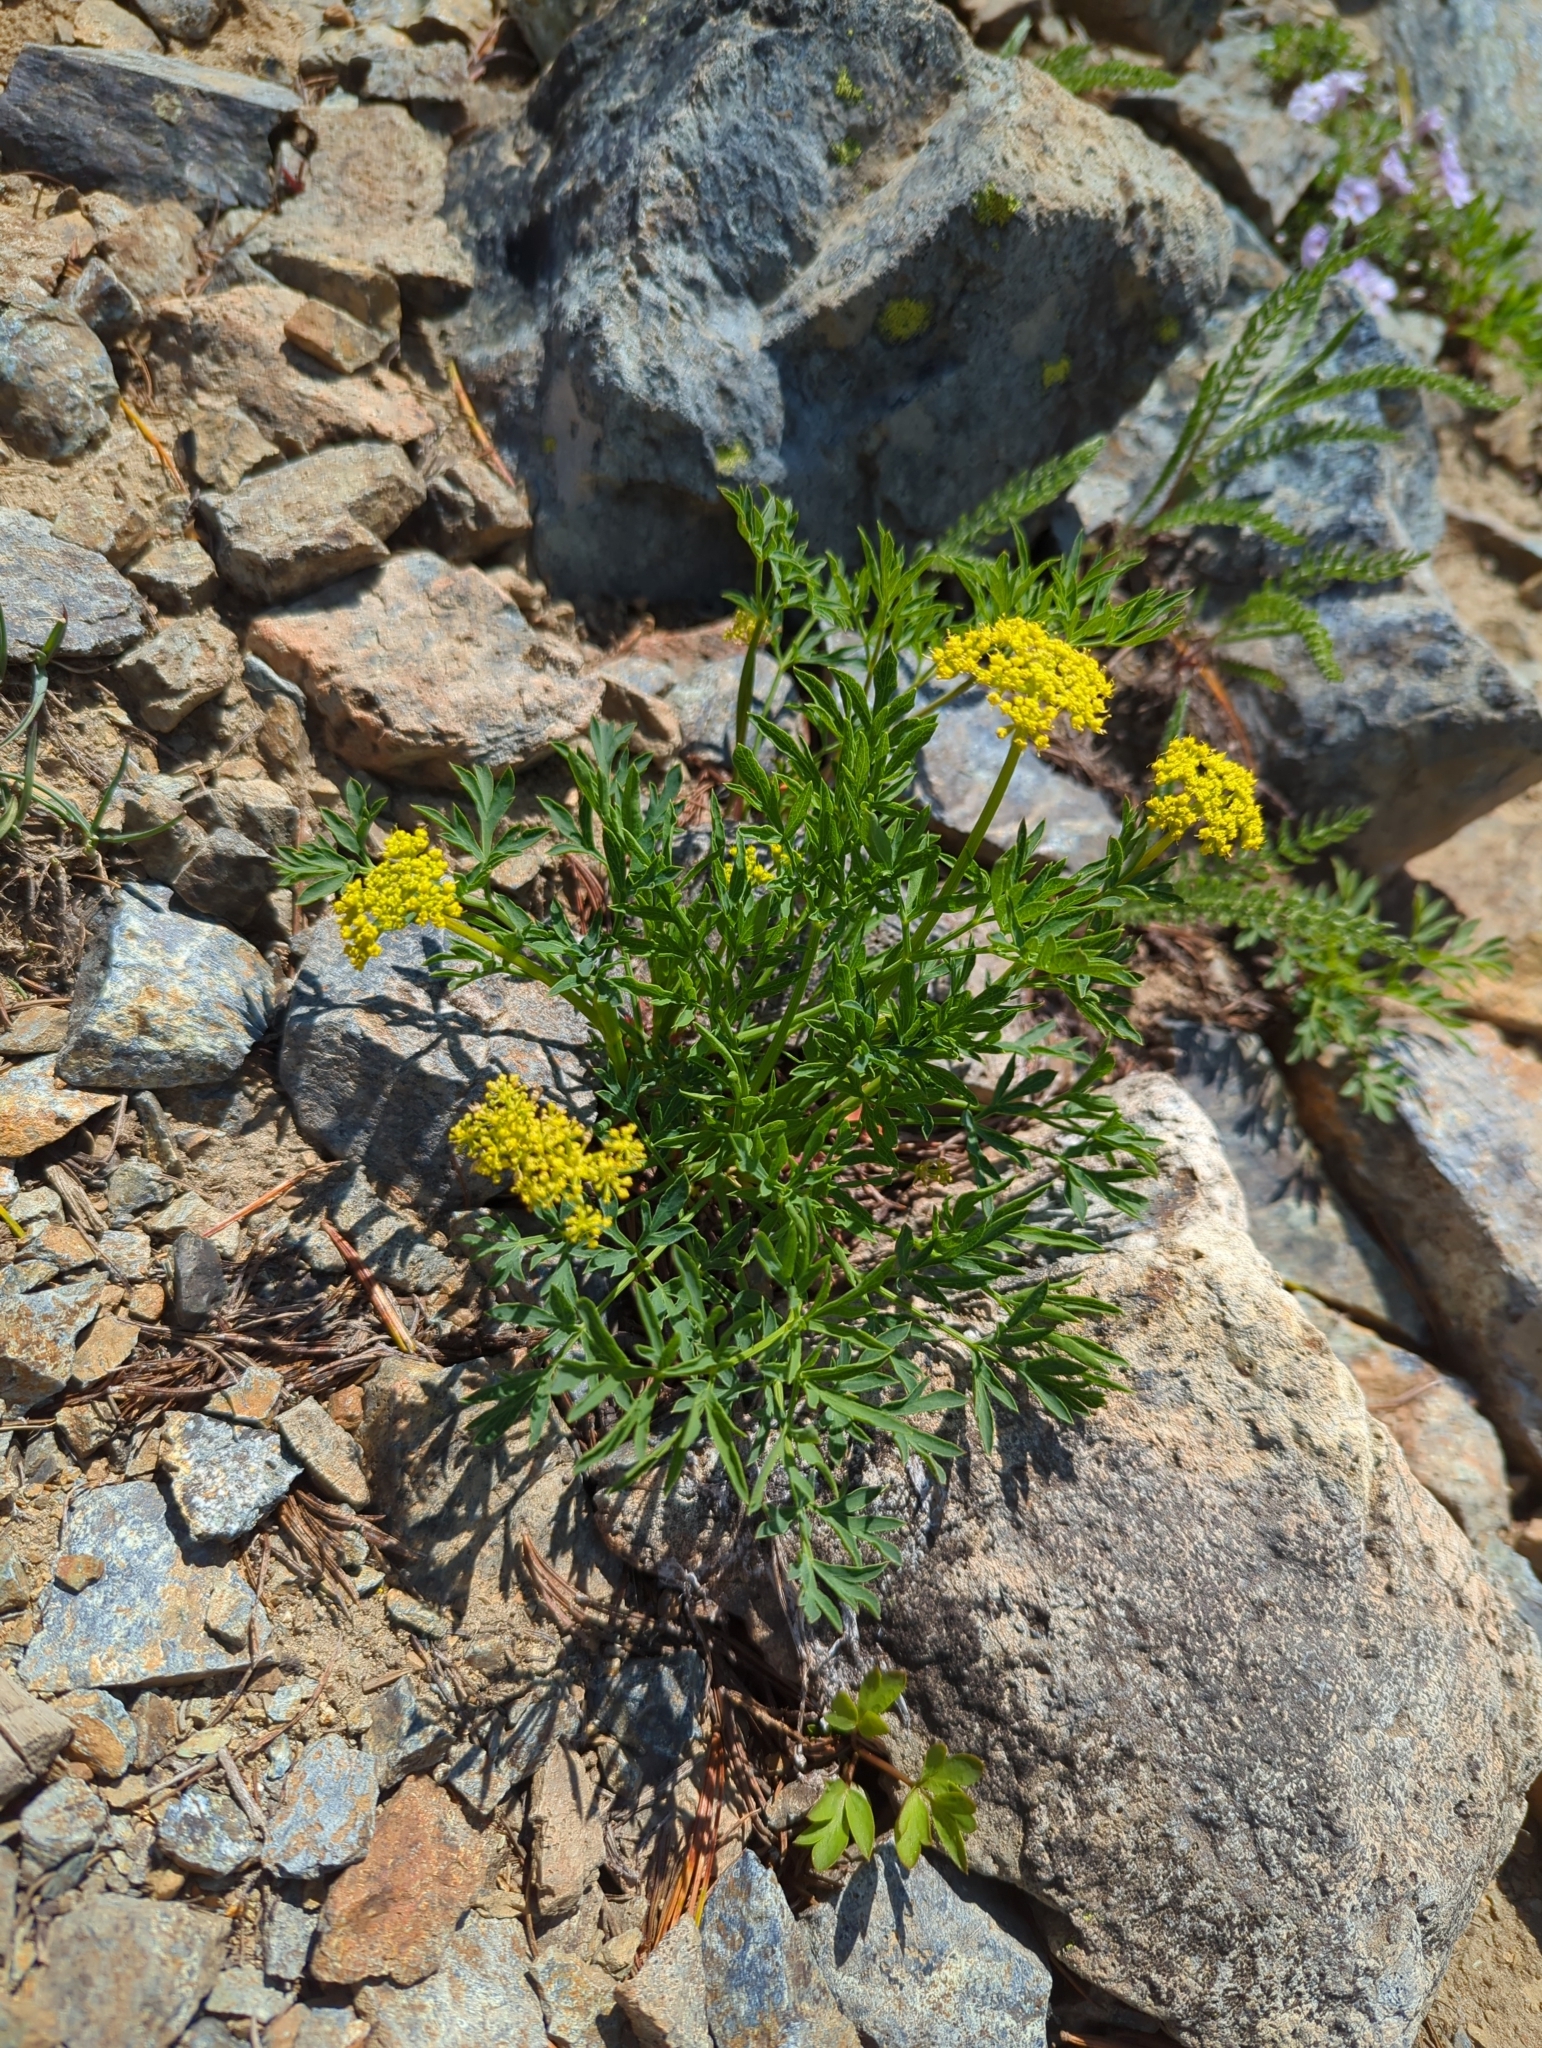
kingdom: Plantae
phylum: Tracheophyta
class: Magnoliopsida
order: Apiales
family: Apiaceae
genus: Lomatium
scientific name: Lomatium brandegeei
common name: Brandegee's desert-parsley
